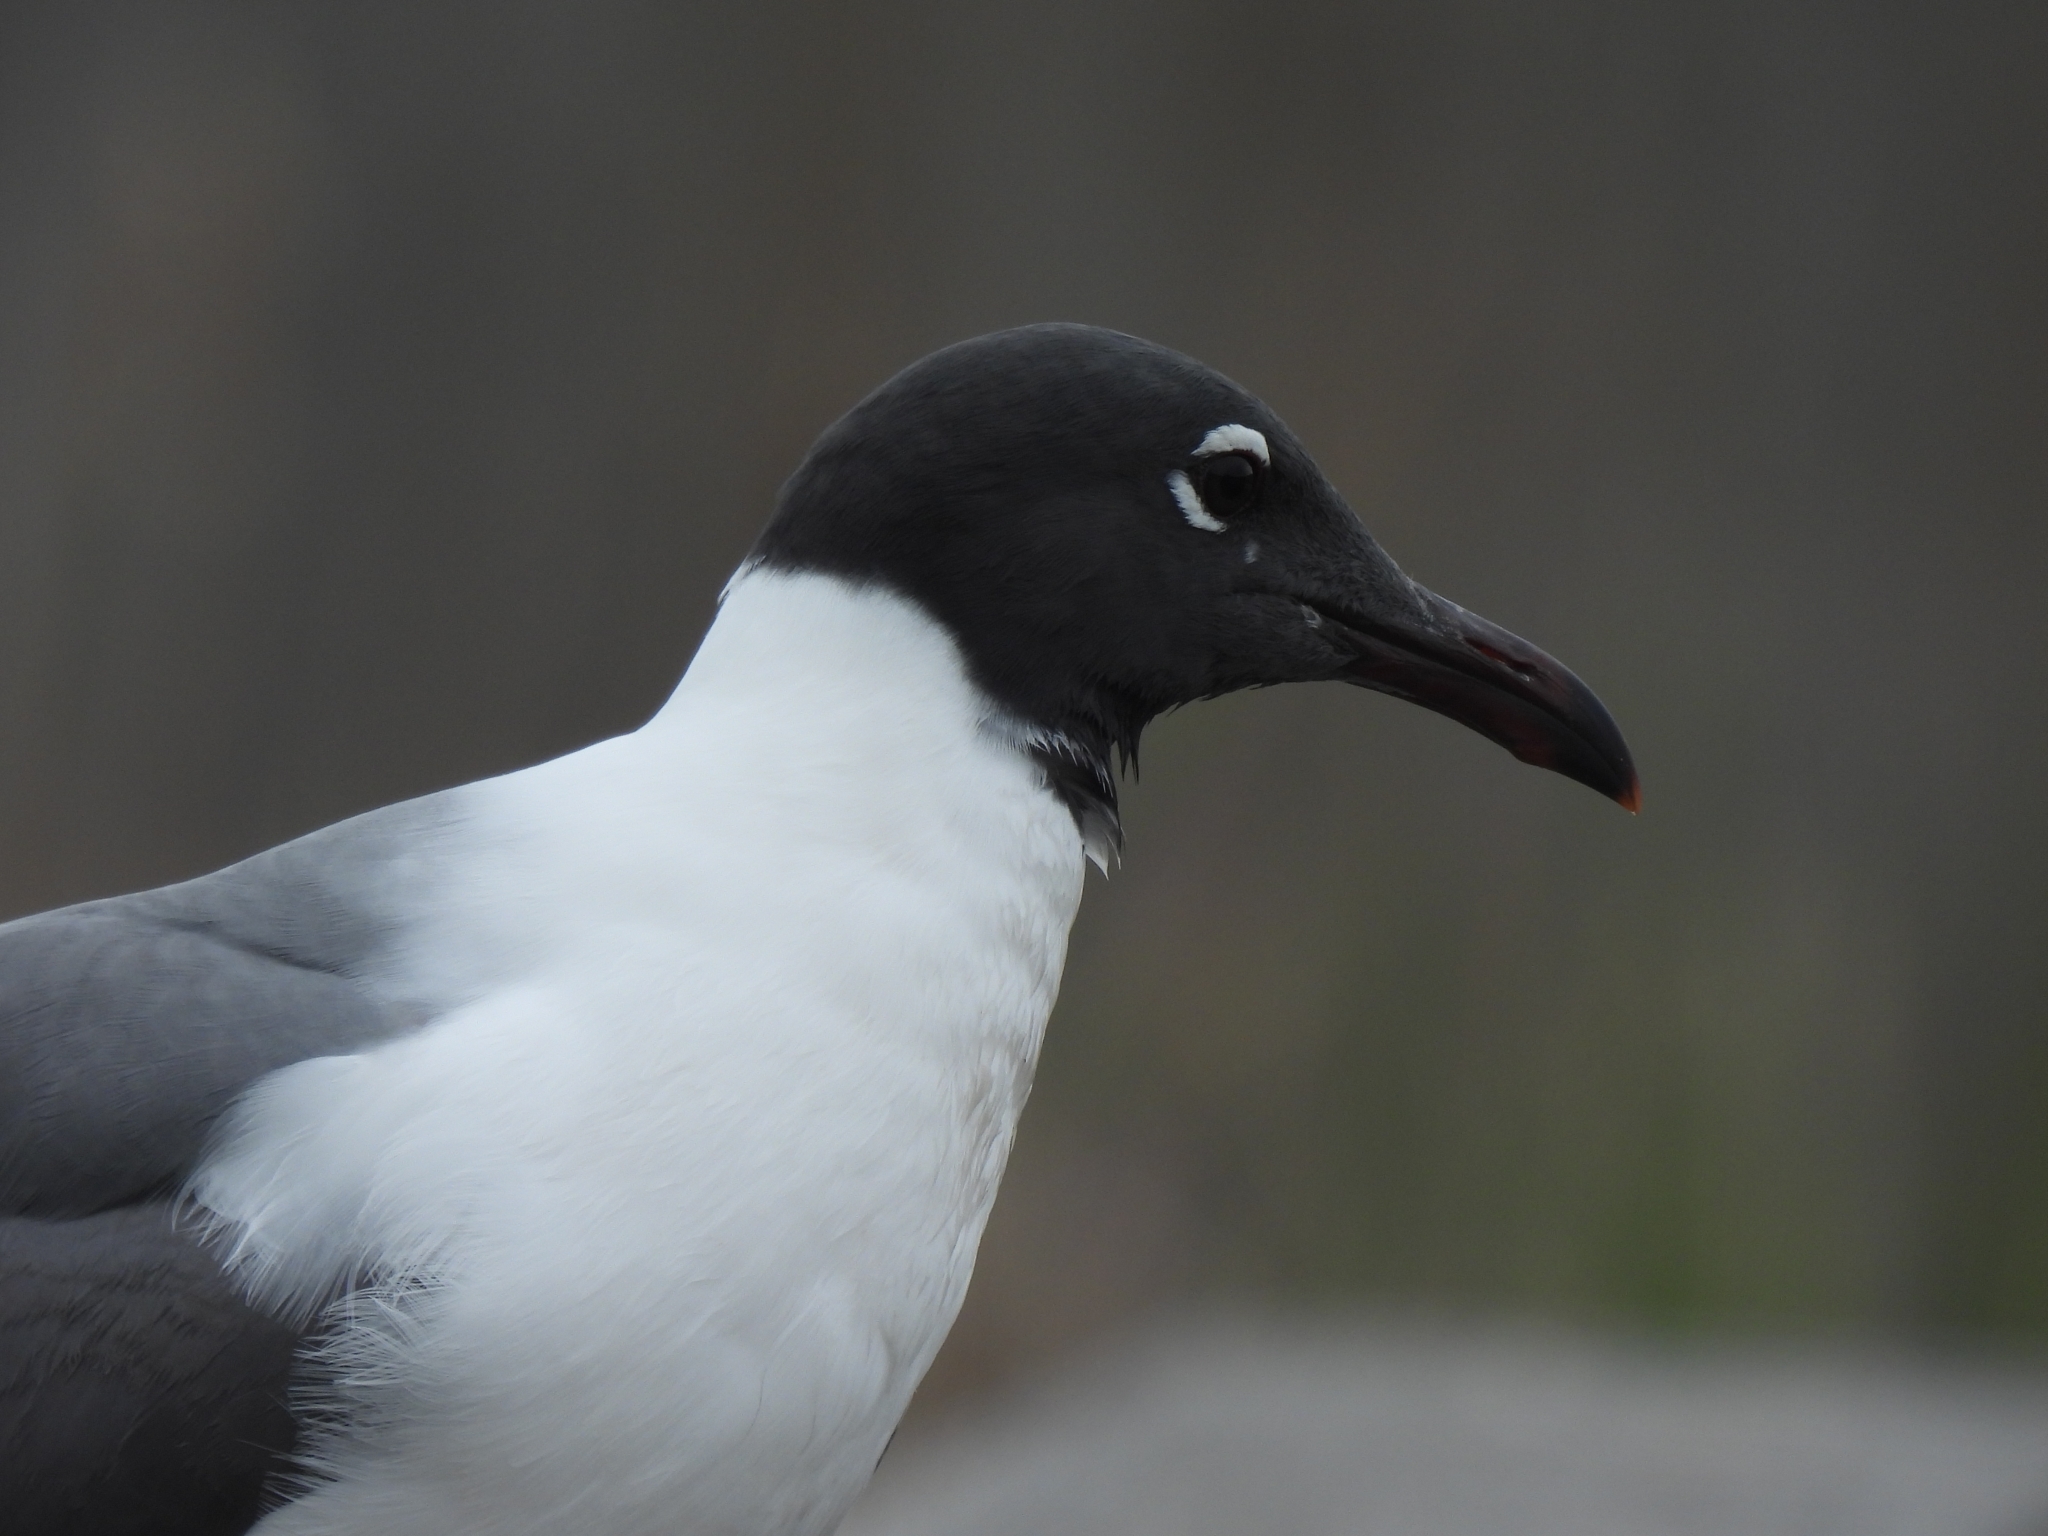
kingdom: Animalia
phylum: Chordata
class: Aves
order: Charadriiformes
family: Laridae
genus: Leucophaeus
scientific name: Leucophaeus atricilla
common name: Laughing gull
